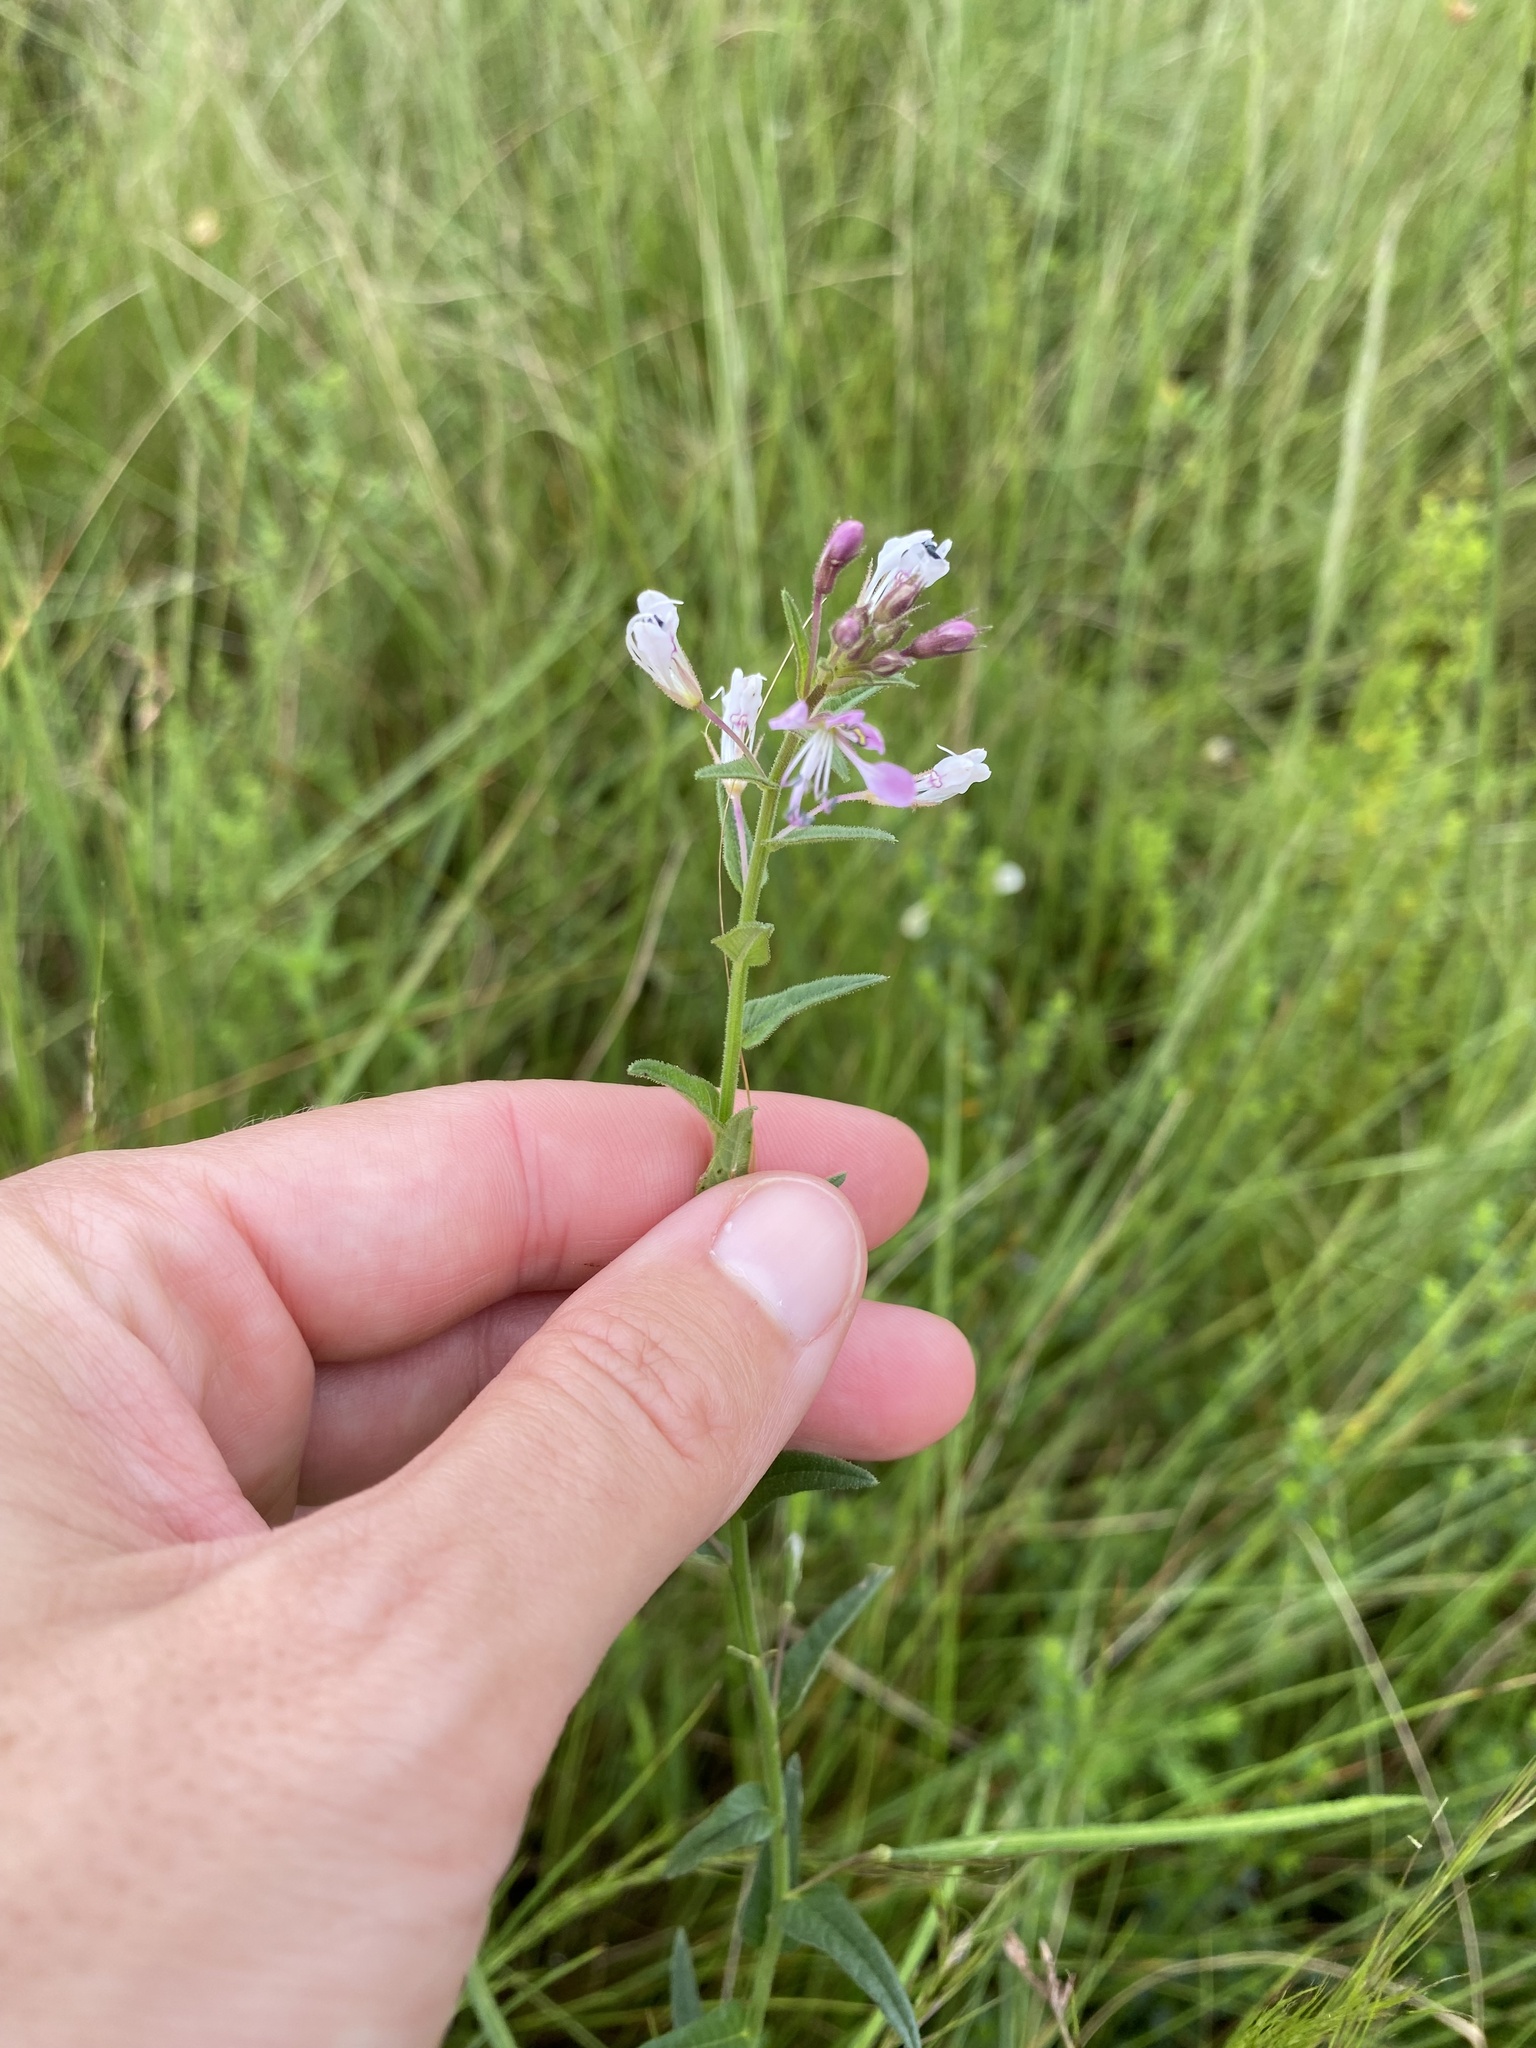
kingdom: Plantae
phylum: Tracheophyta
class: Magnoliopsida
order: Brassicales
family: Cleomaceae
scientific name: Cleomaceae
